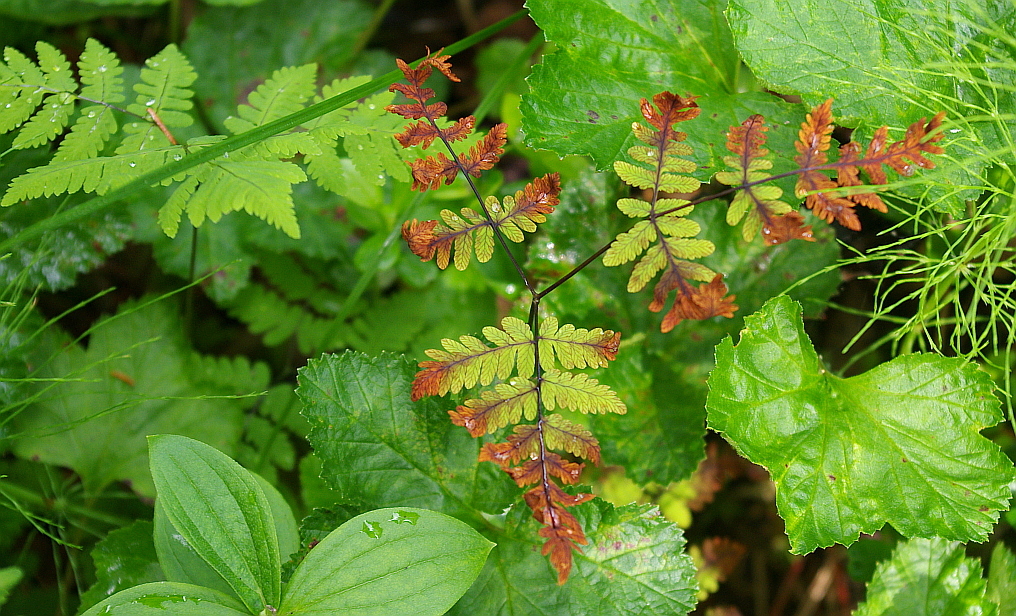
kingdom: Plantae
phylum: Tracheophyta
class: Polypodiopsida
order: Polypodiales
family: Cystopteridaceae
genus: Gymnocarpium
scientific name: Gymnocarpium dryopteris
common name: Oak fern
